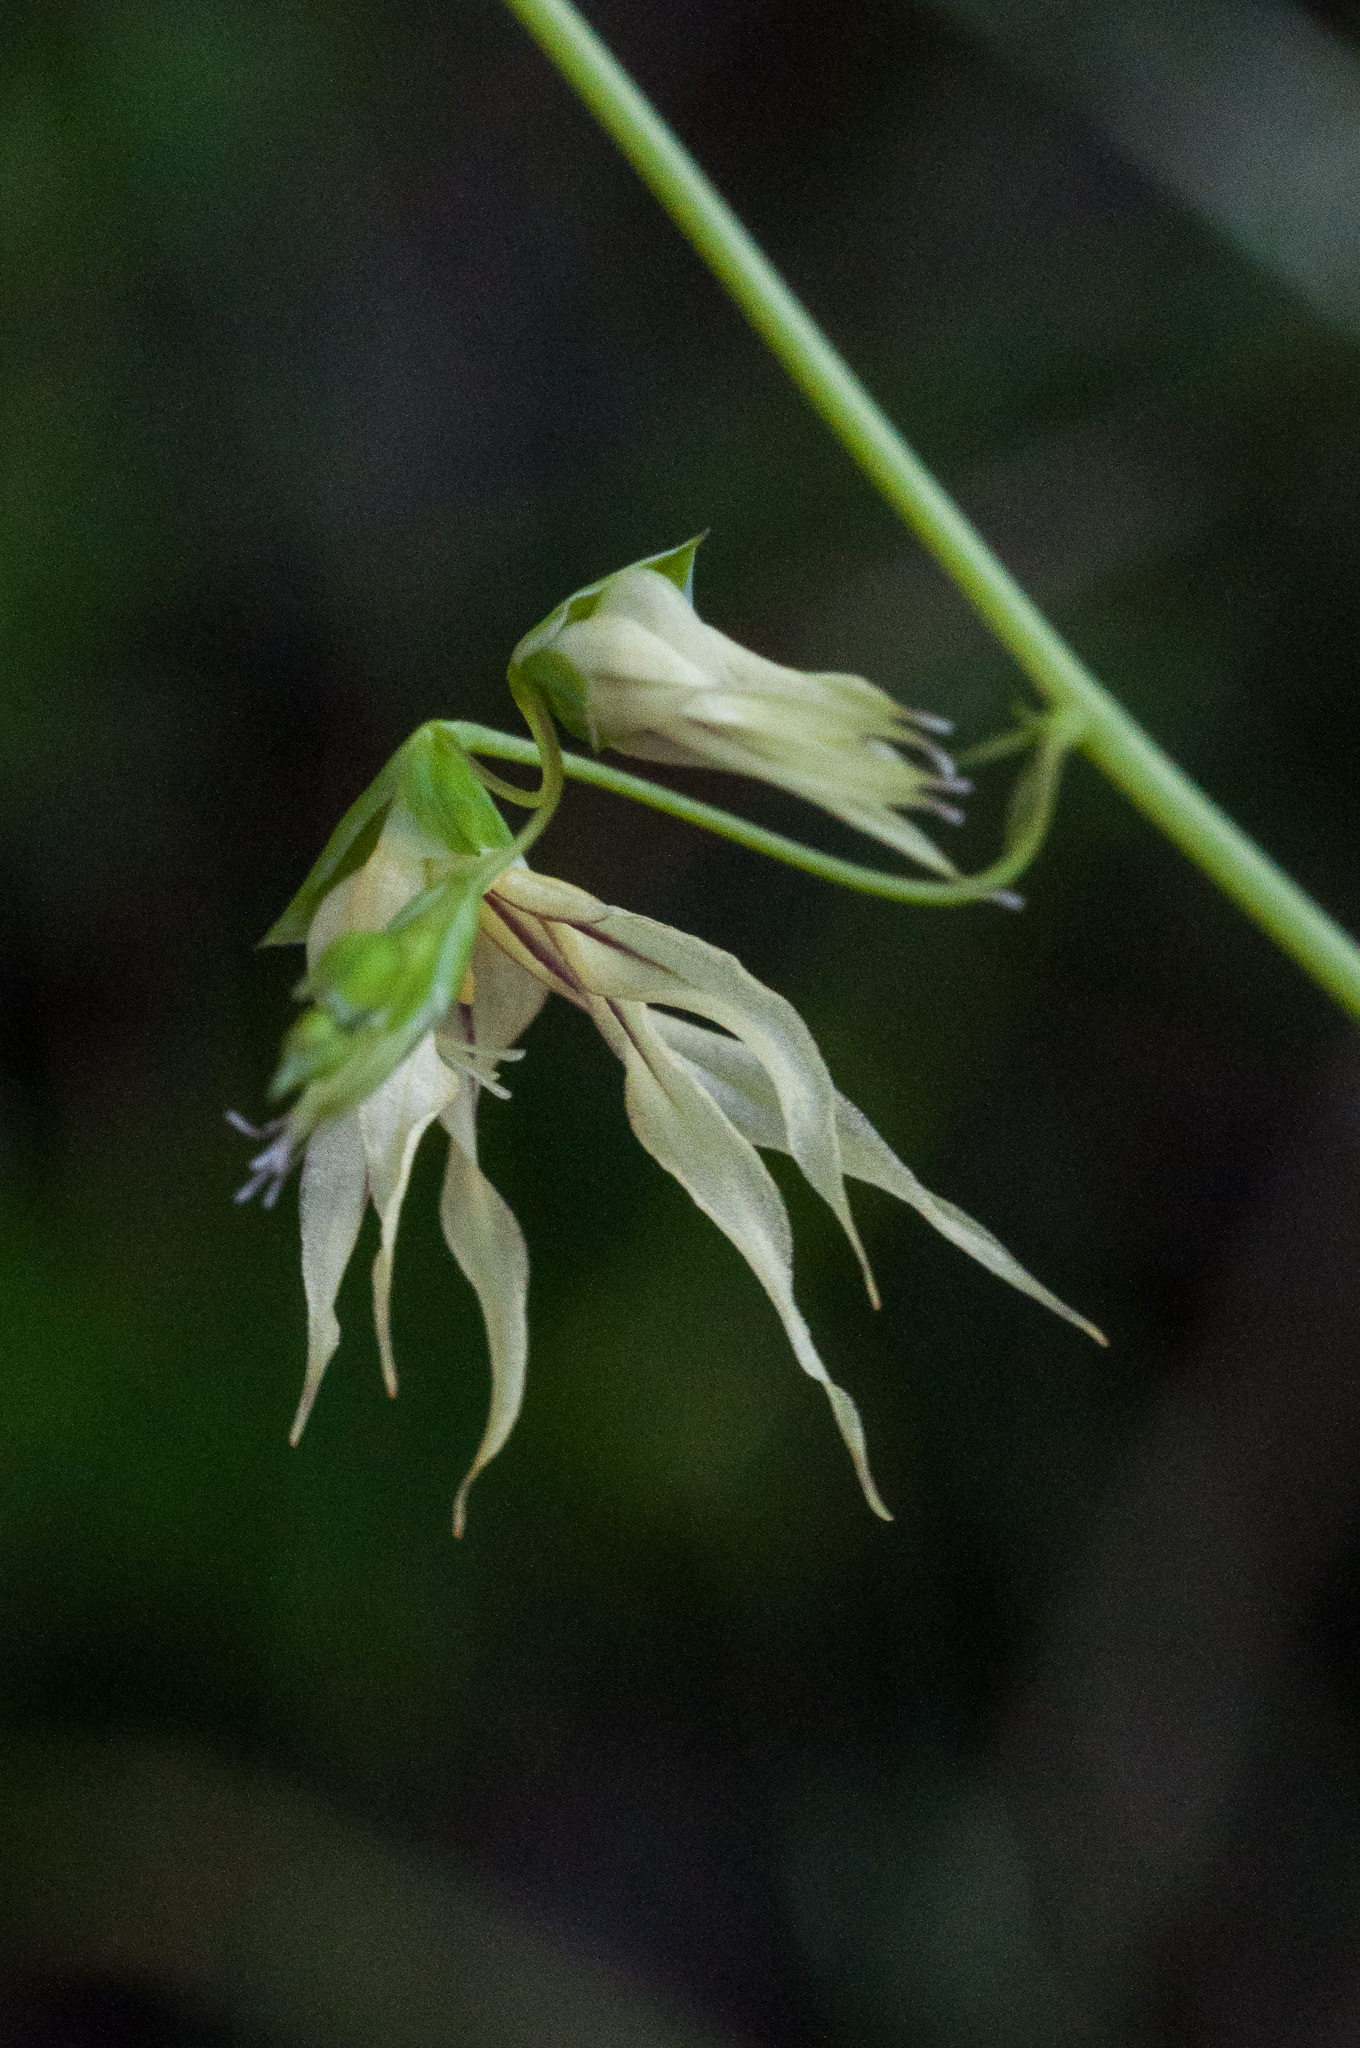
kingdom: Plantae
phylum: Tracheophyta
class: Liliopsida
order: Asparagales
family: Iridaceae
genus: Melasphaerula
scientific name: Melasphaerula graminea
